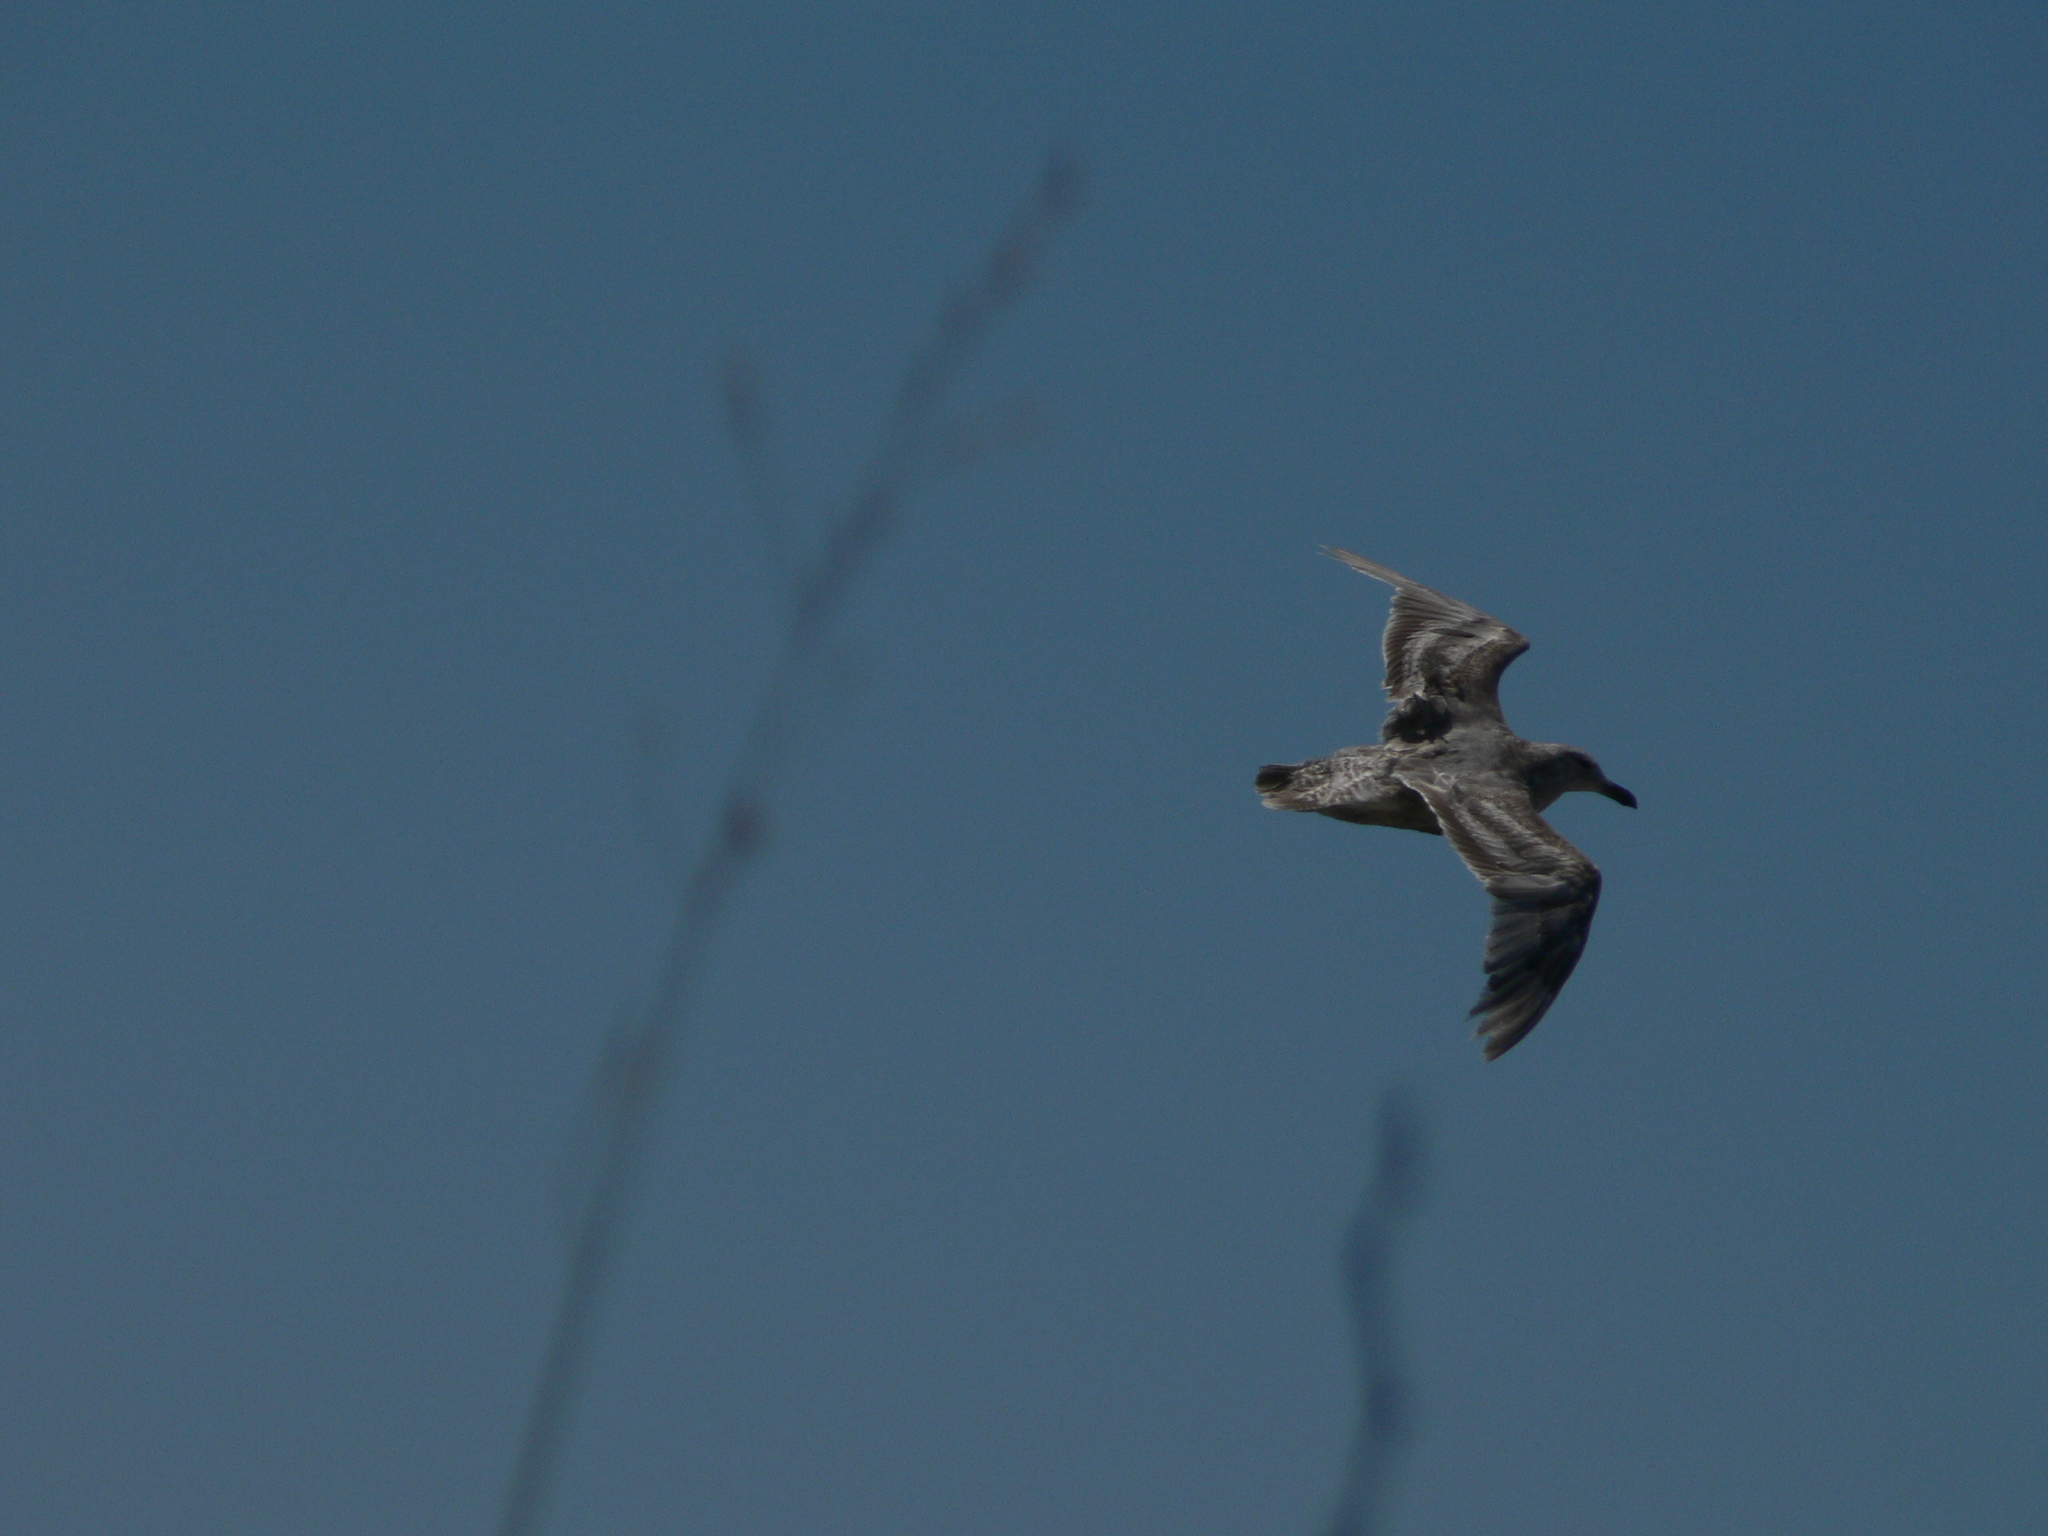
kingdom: Animalia
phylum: Chordata
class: Aves
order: Charadriiformes
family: Laridae
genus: Larus
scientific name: Larus occidentalis
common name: Western gull
